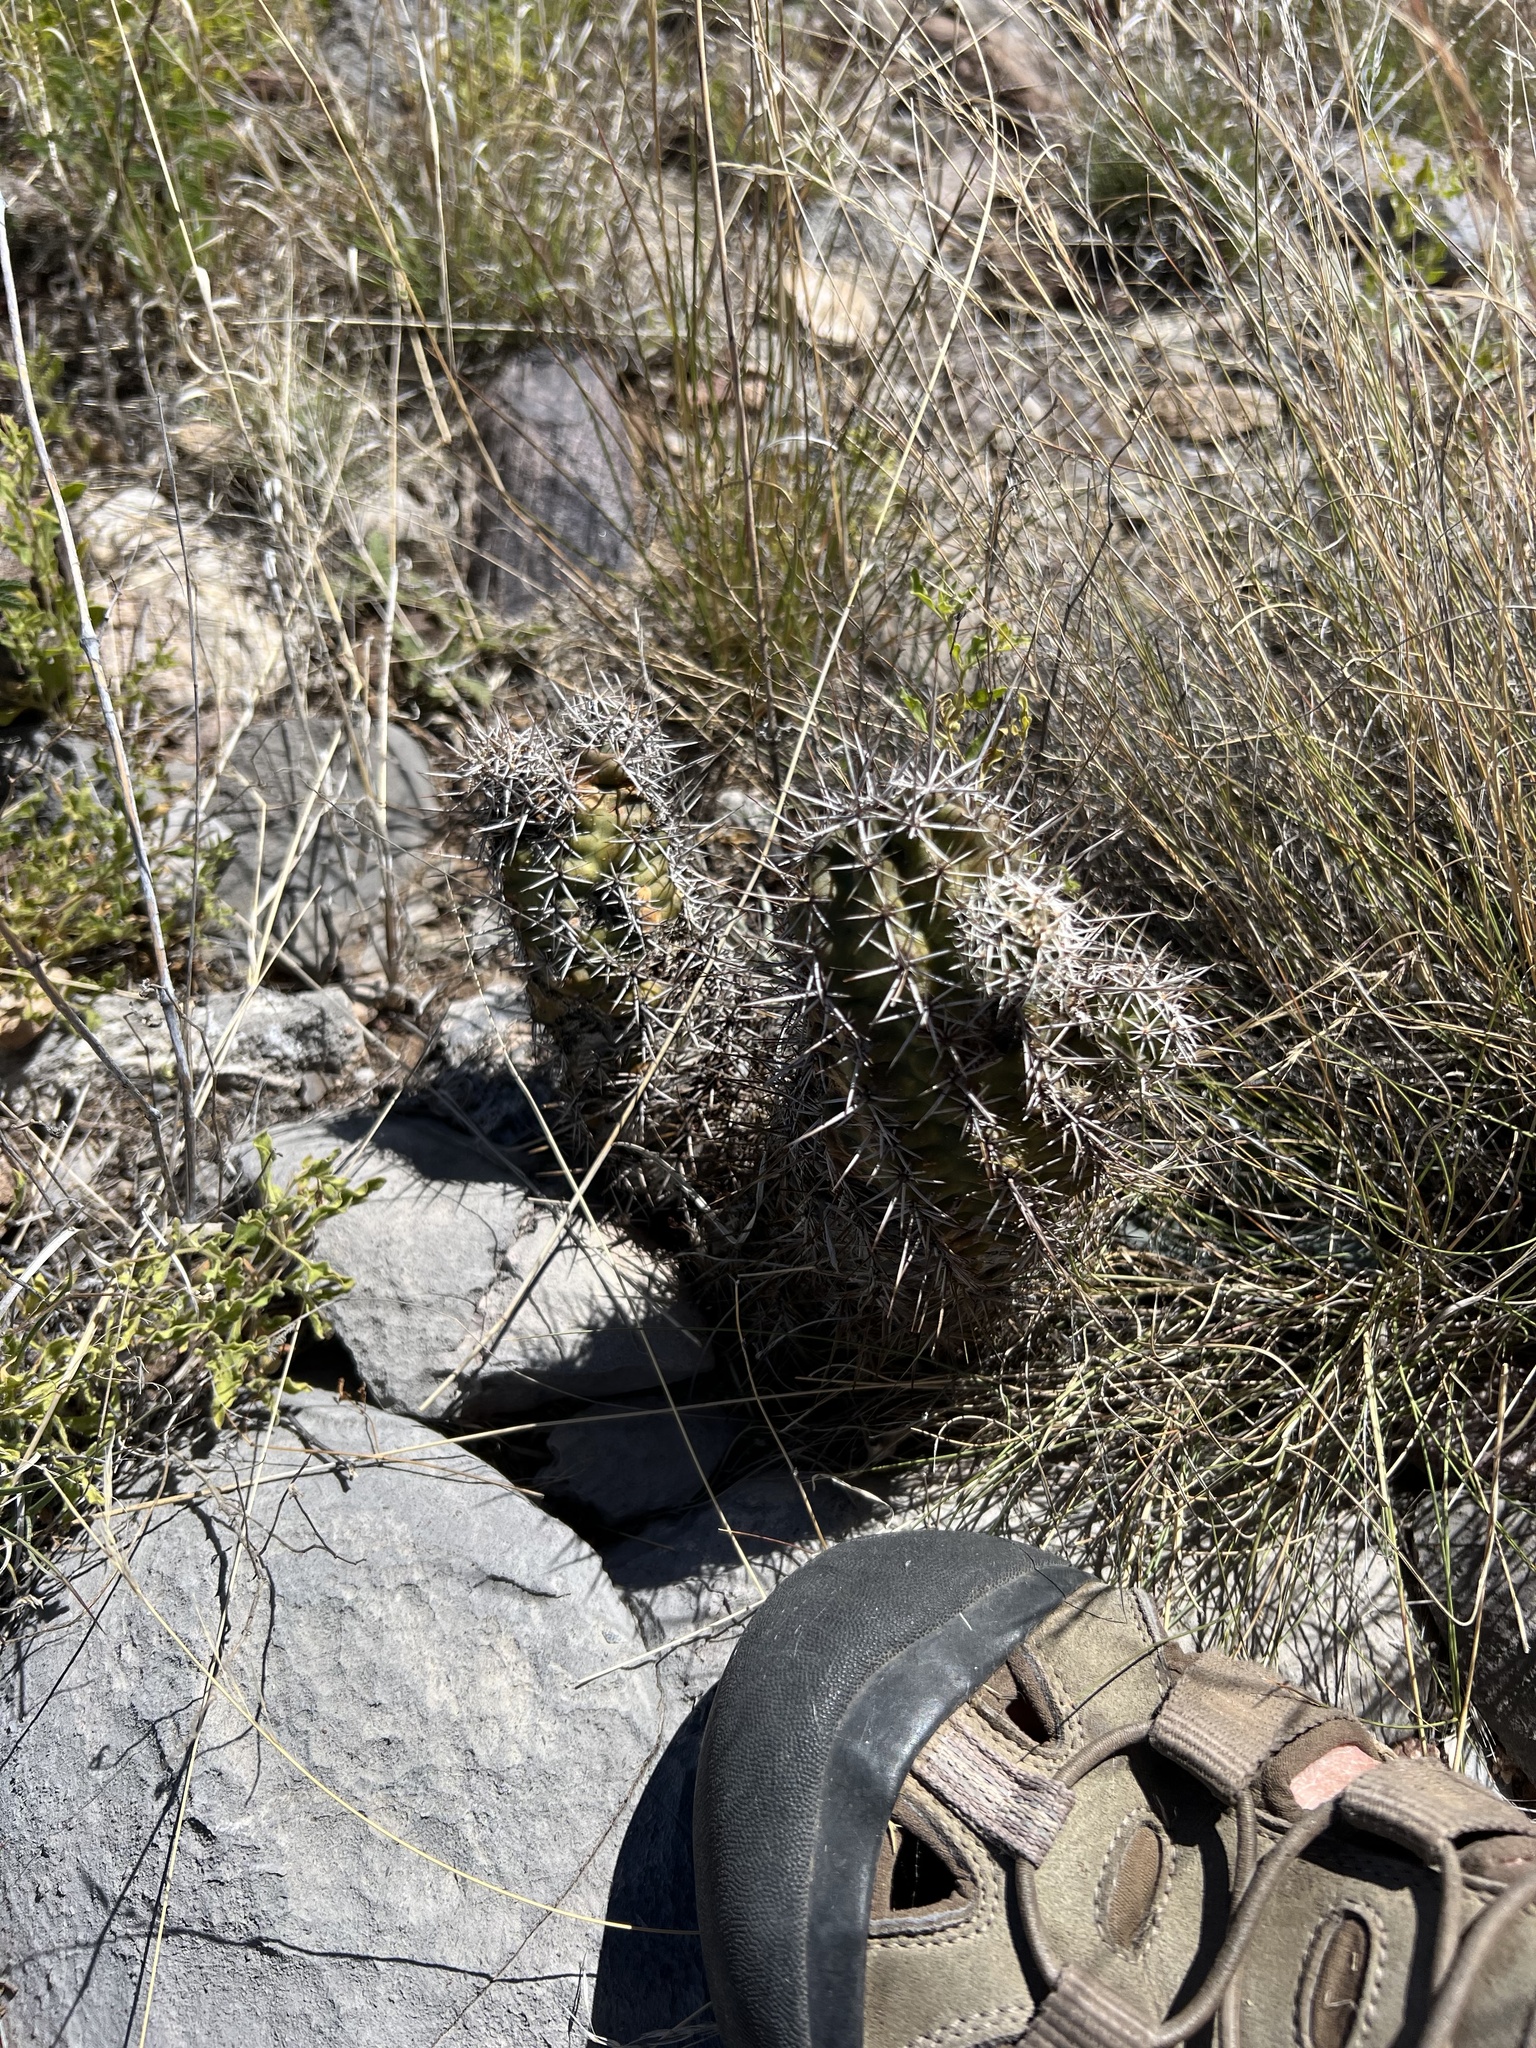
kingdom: Plantae
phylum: Tracheophyta
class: Magnoliopsida
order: Caryophyllales
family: Cactaceae
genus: Echinocereus
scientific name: Echinocereus fendleri
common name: Fendler's hedgehog cactus
